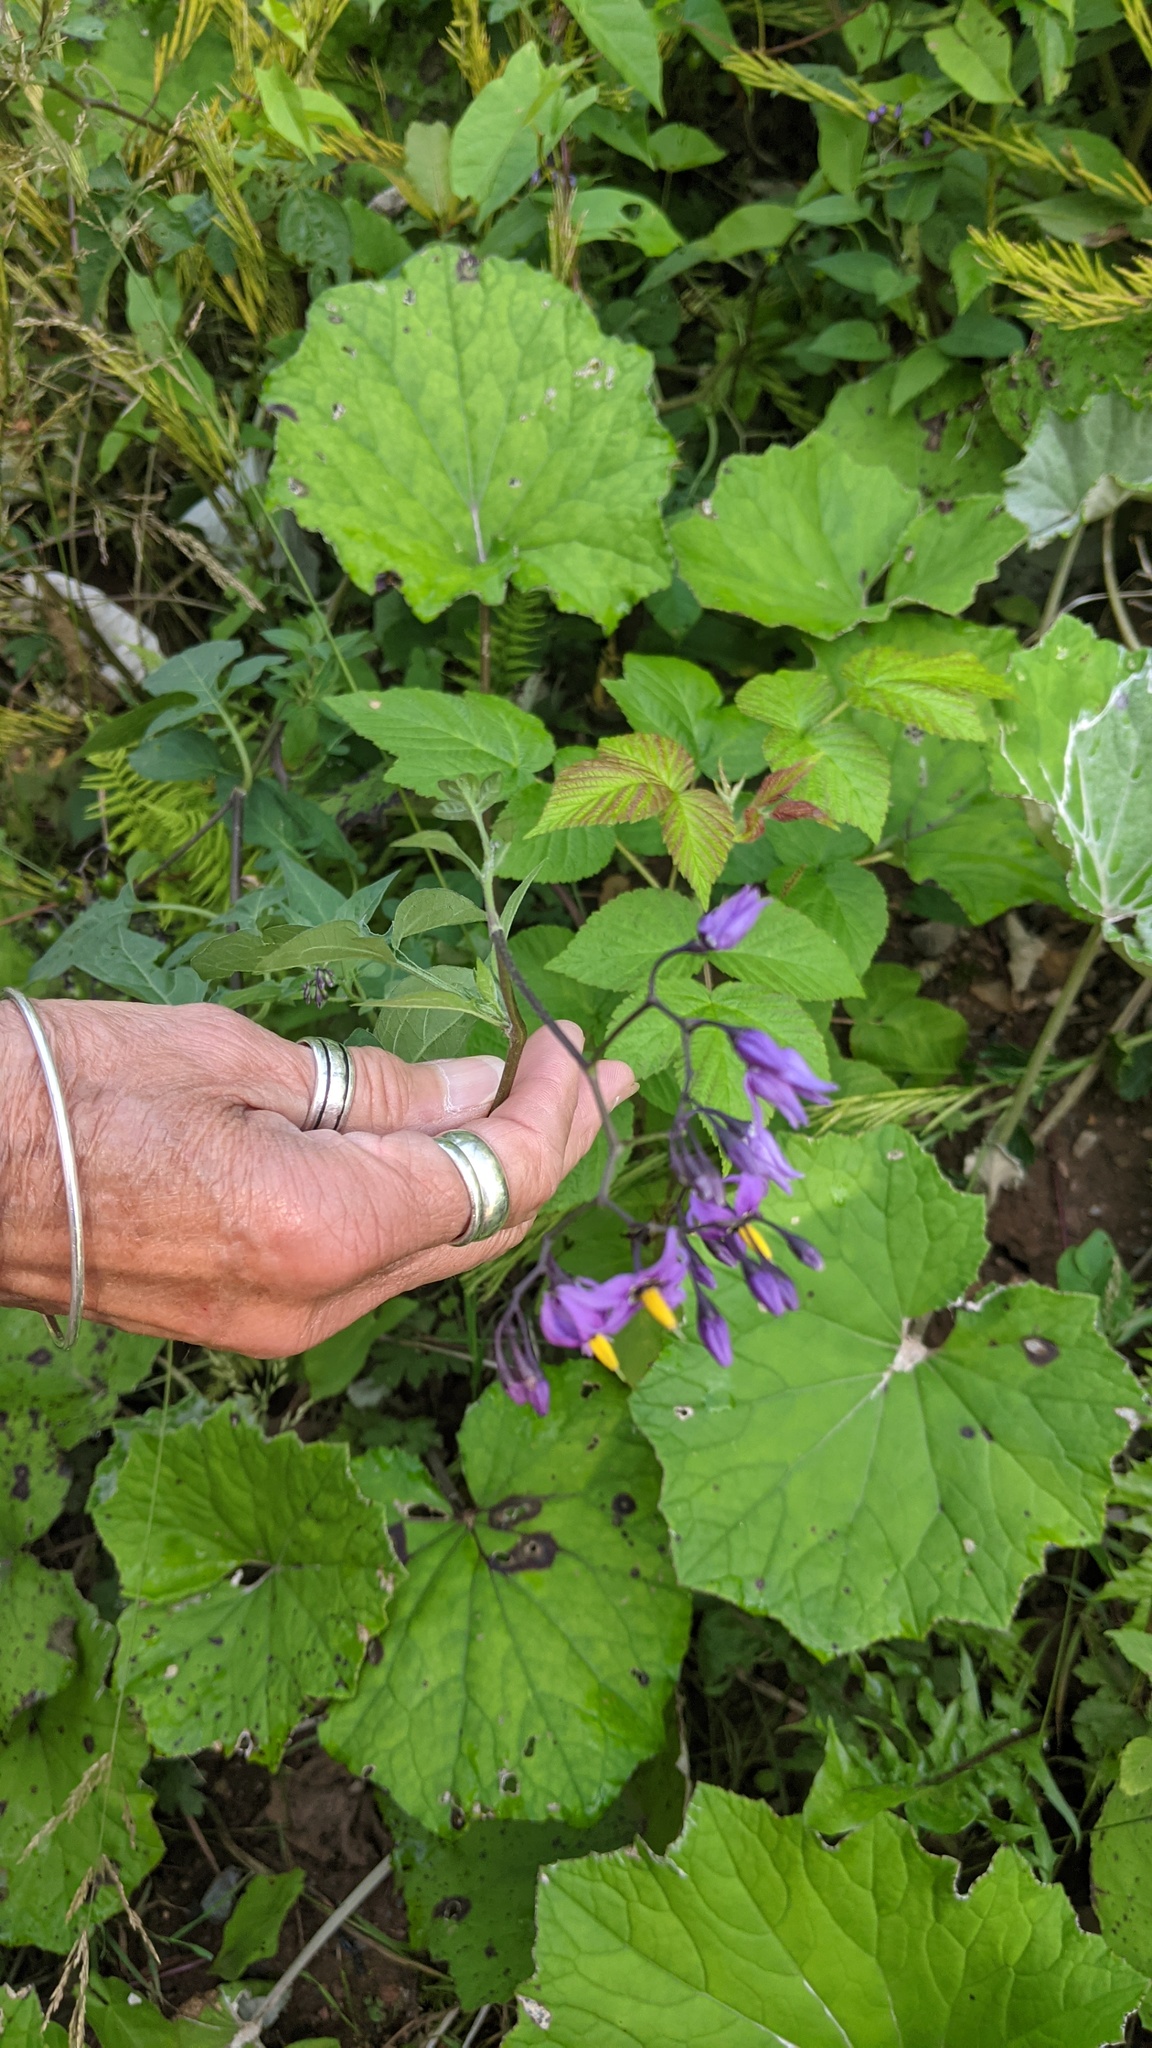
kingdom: Plantae
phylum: Tracheophyta
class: Magnoliopsida
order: Solanales
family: Solanaceae
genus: Solanum
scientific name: Solanum dulcamara
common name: Climbing nightshade
